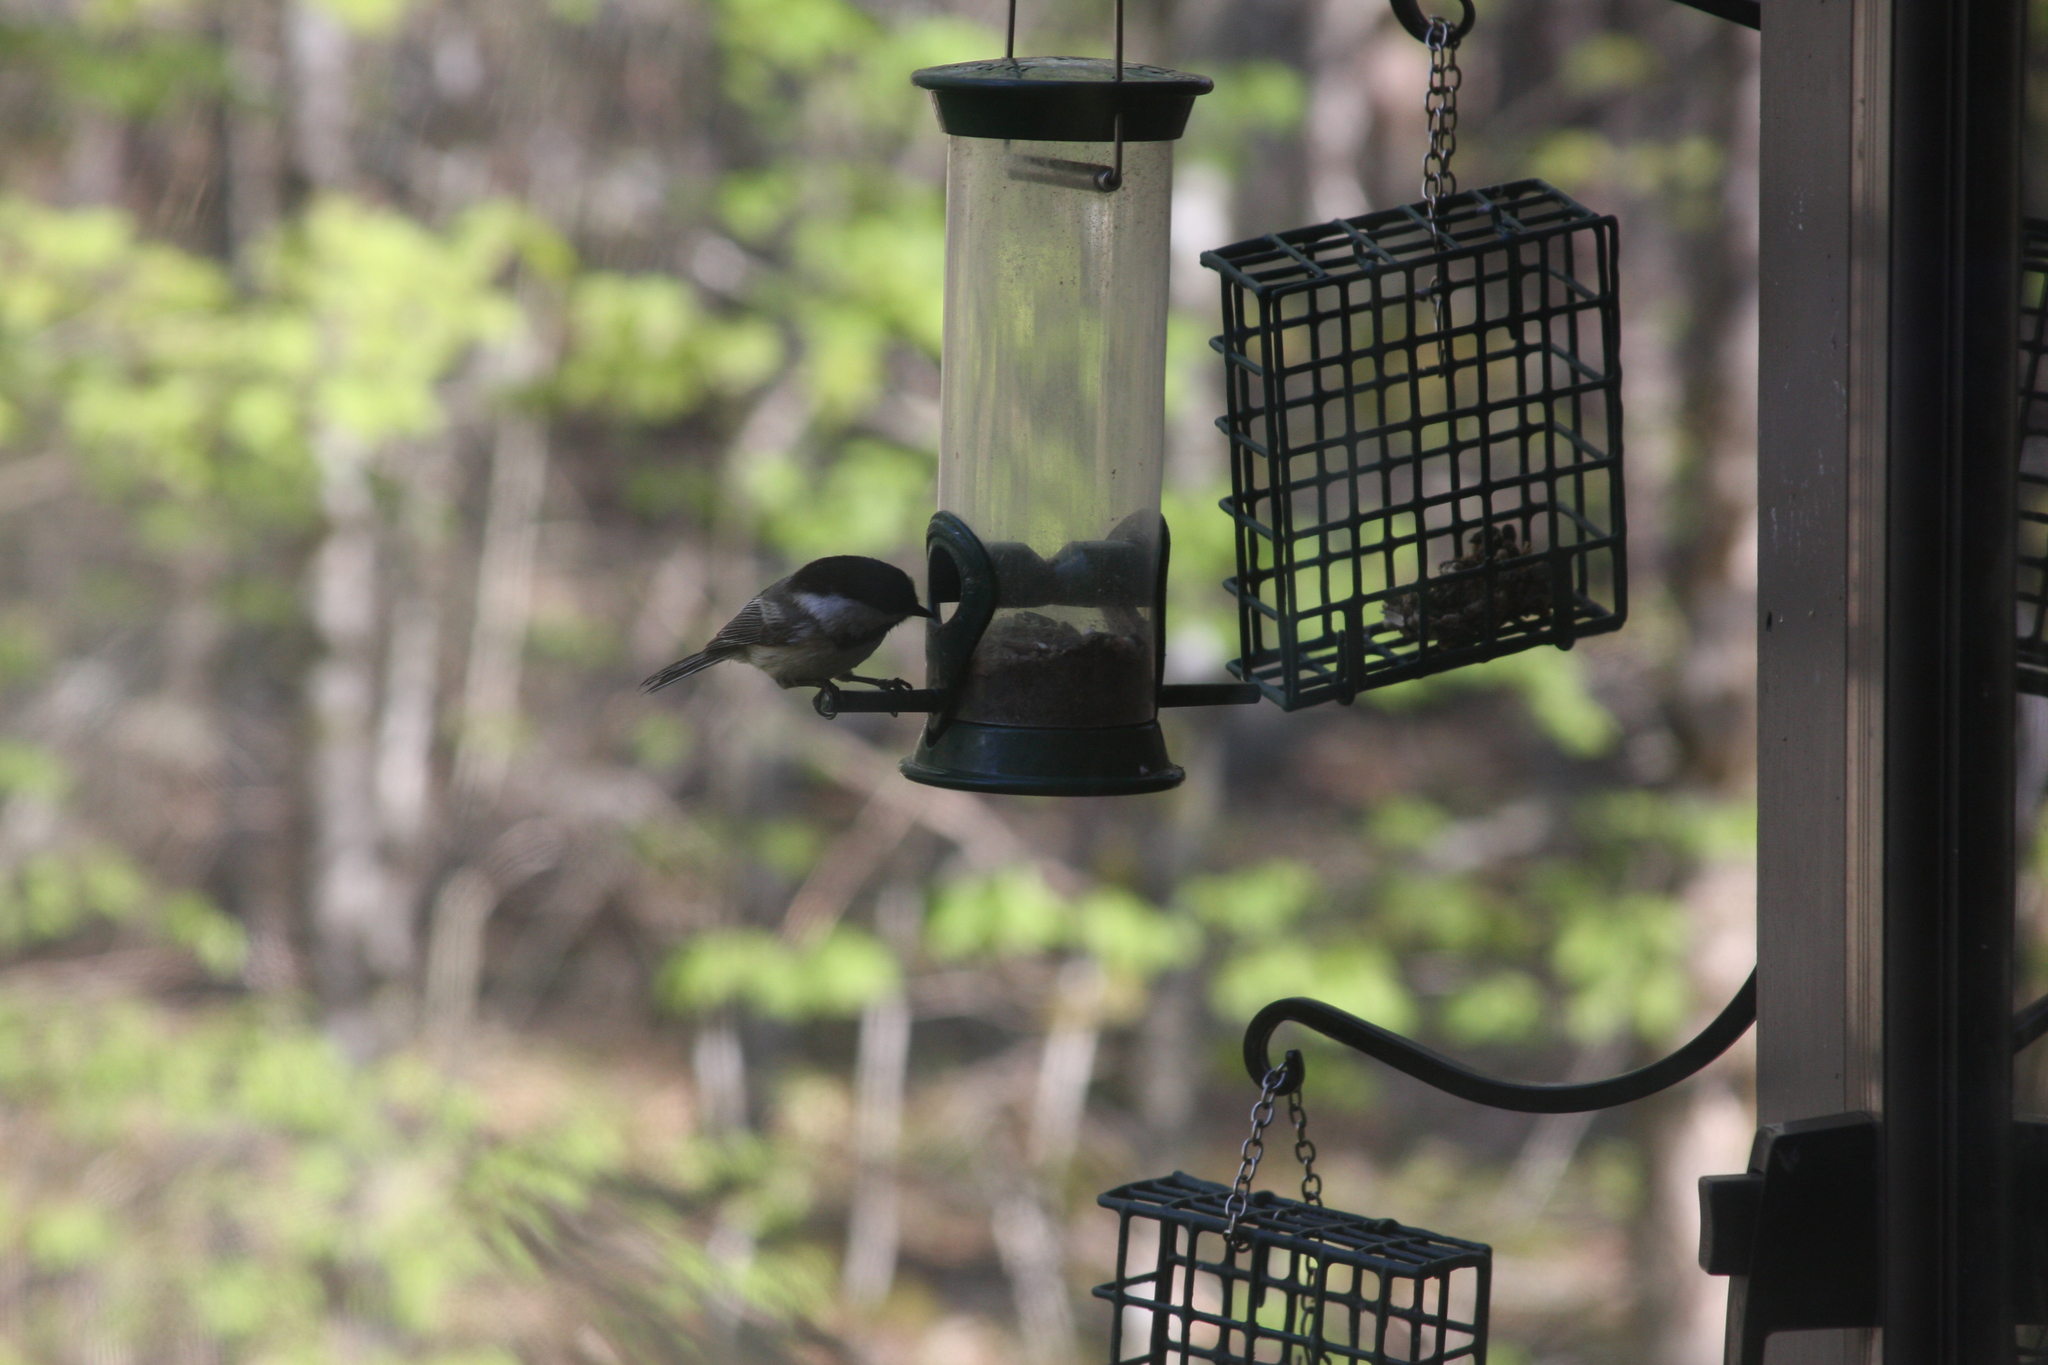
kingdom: Animalia
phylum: Chordata
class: Aves
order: Passeriformes
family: Paridae
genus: Poecile
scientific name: Poecile atricapillus
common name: Black-capped chickadee
